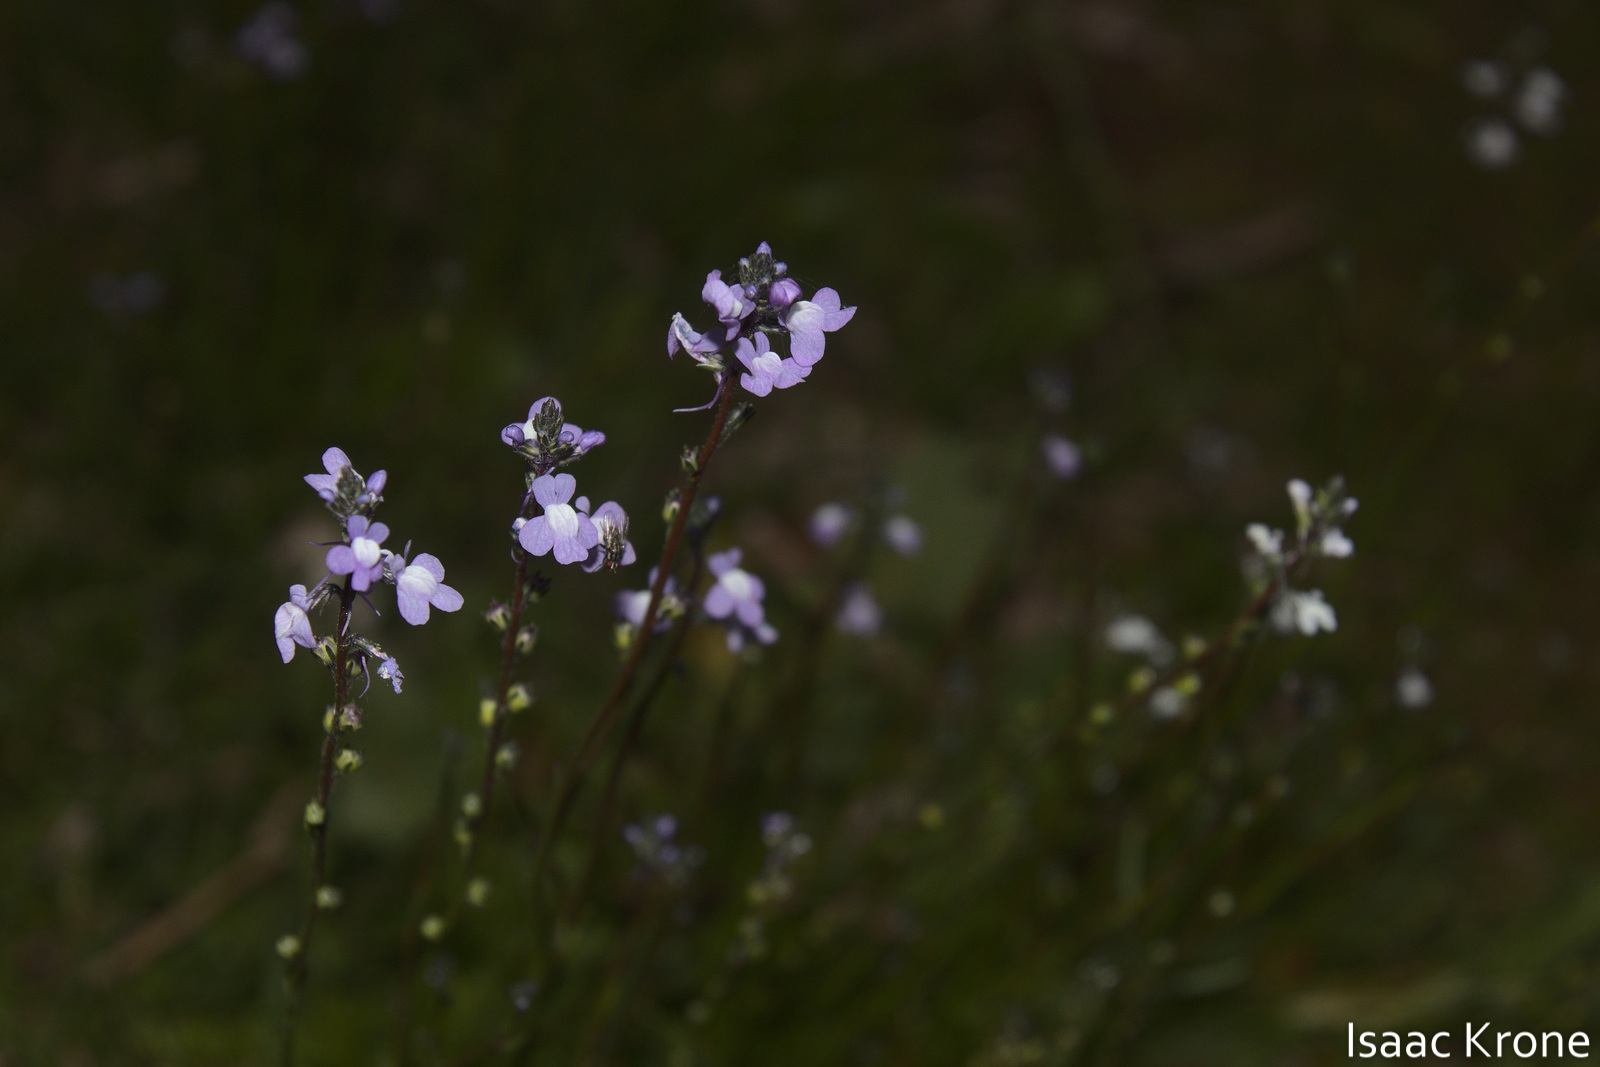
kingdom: Plantae
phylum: Tracheophyta
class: Magnoliopsida
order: Lamiales
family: Plantaginaceae
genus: Nuttallanthus
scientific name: Nuttallanthus canadensis
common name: Blue toadflax
